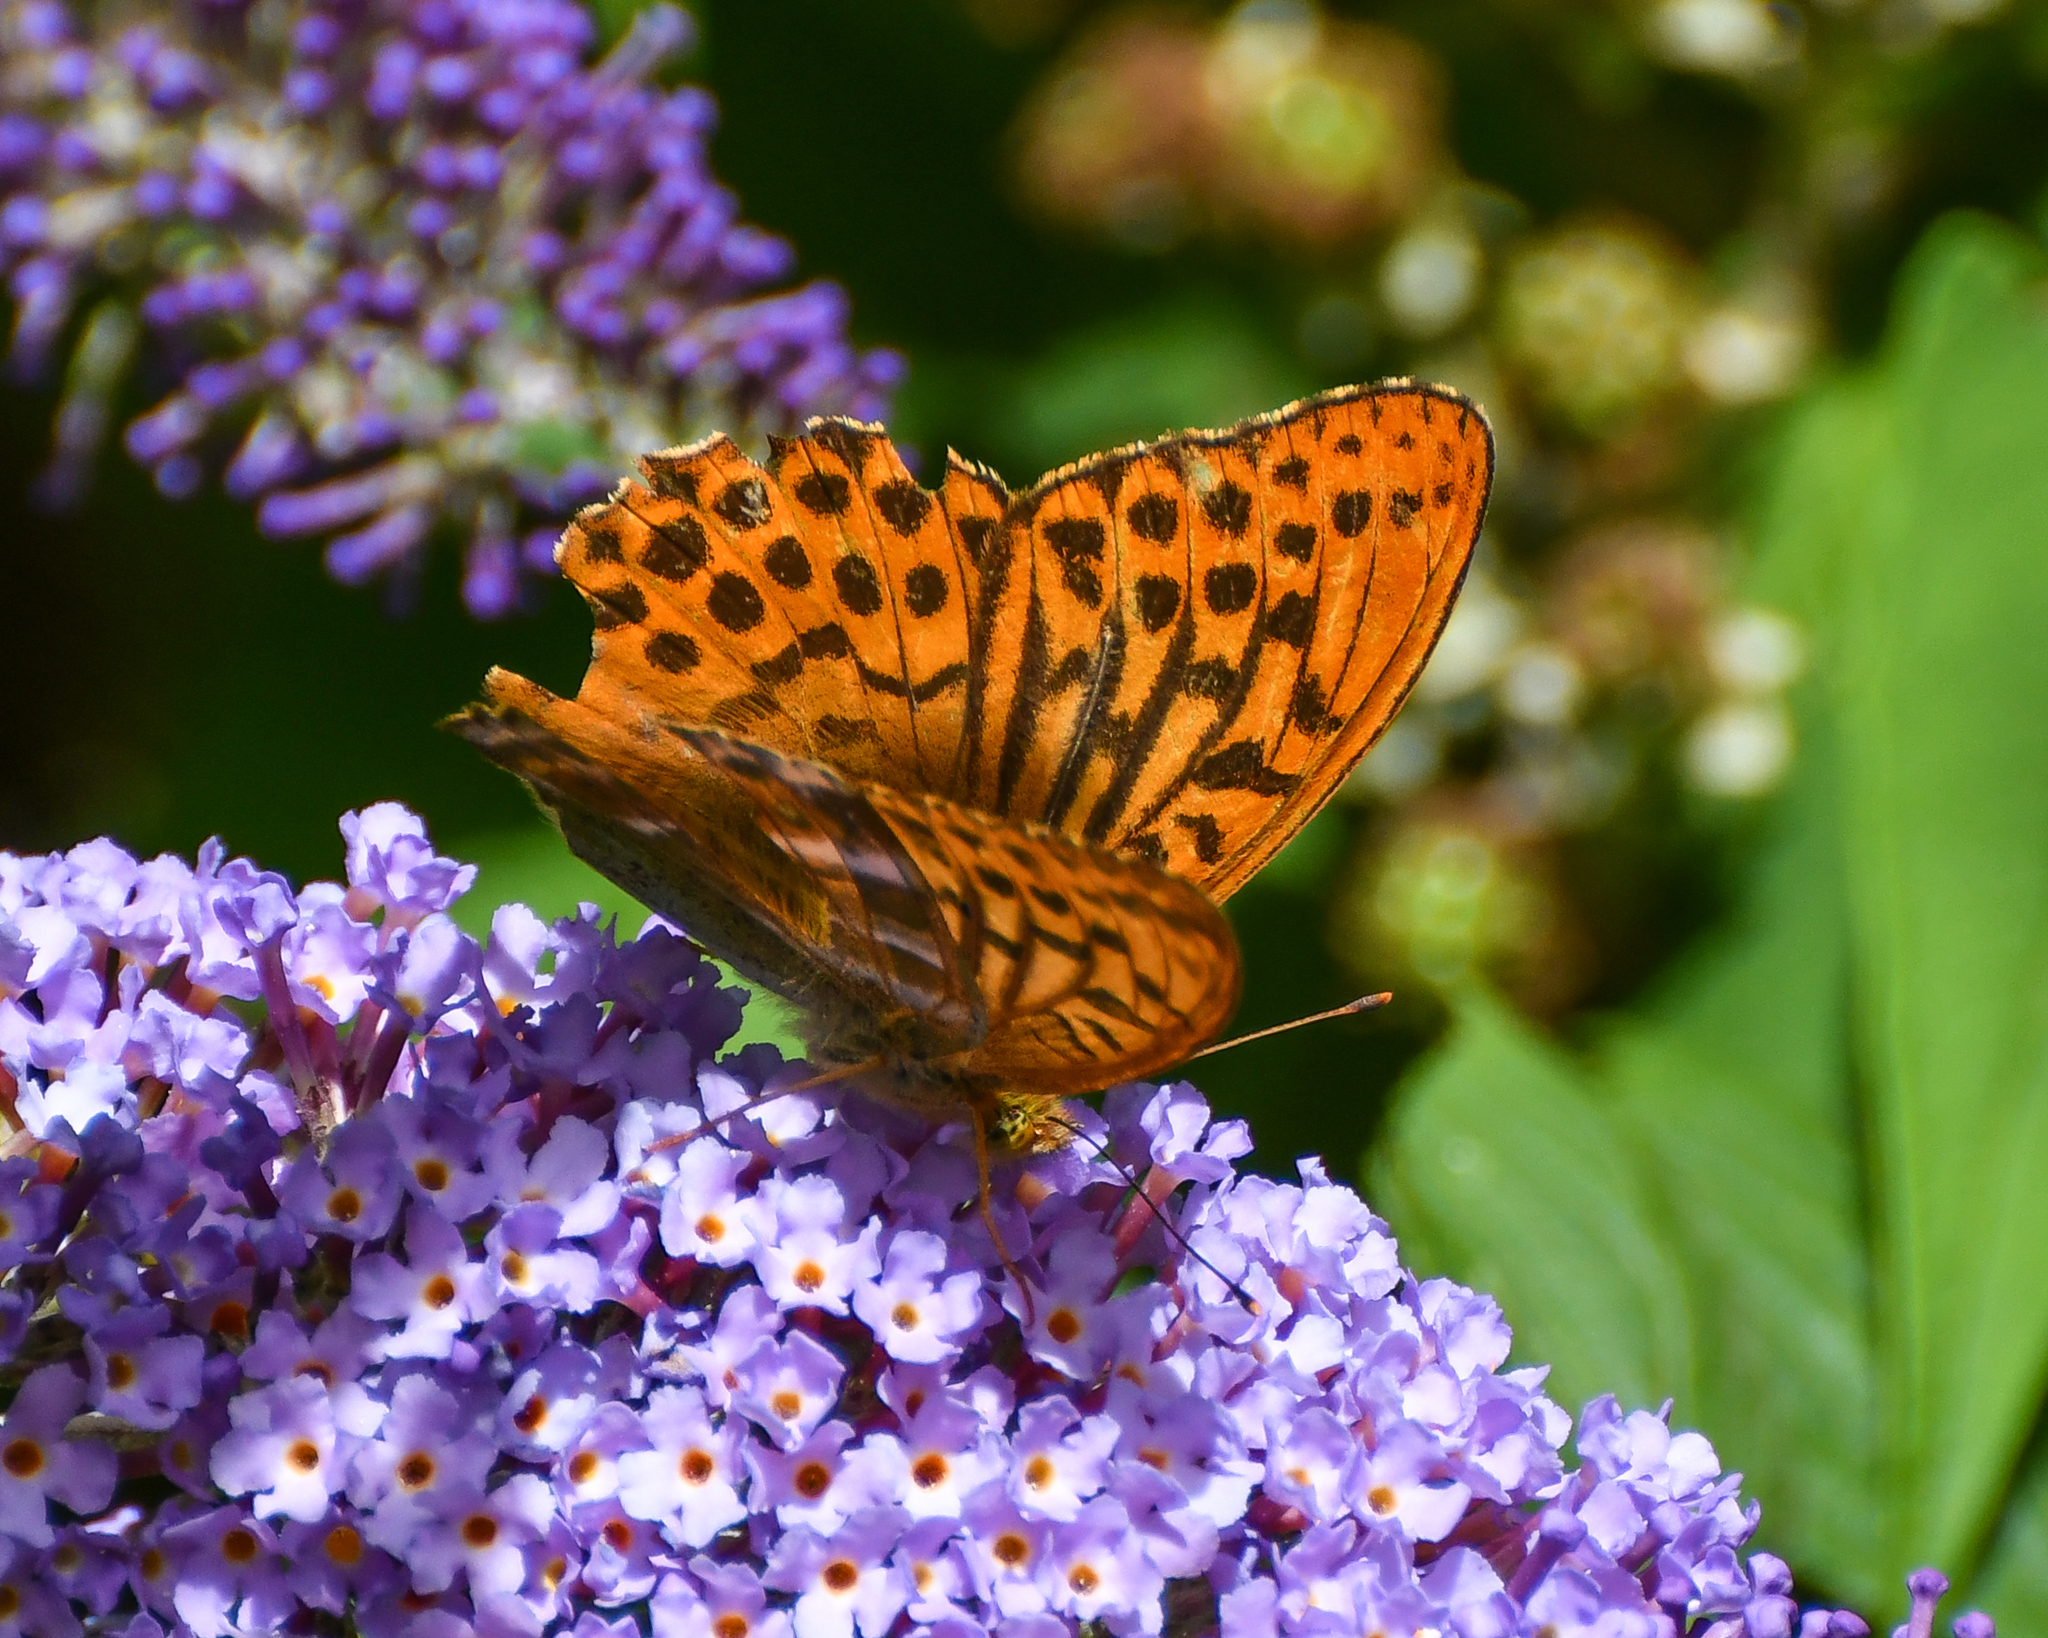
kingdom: Animalia
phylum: Arthropoda
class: Insecta
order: Lepidoptera
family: Nymphalidae
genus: Argynnis
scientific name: Argynnis paphia
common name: Silver-washed fritillary
